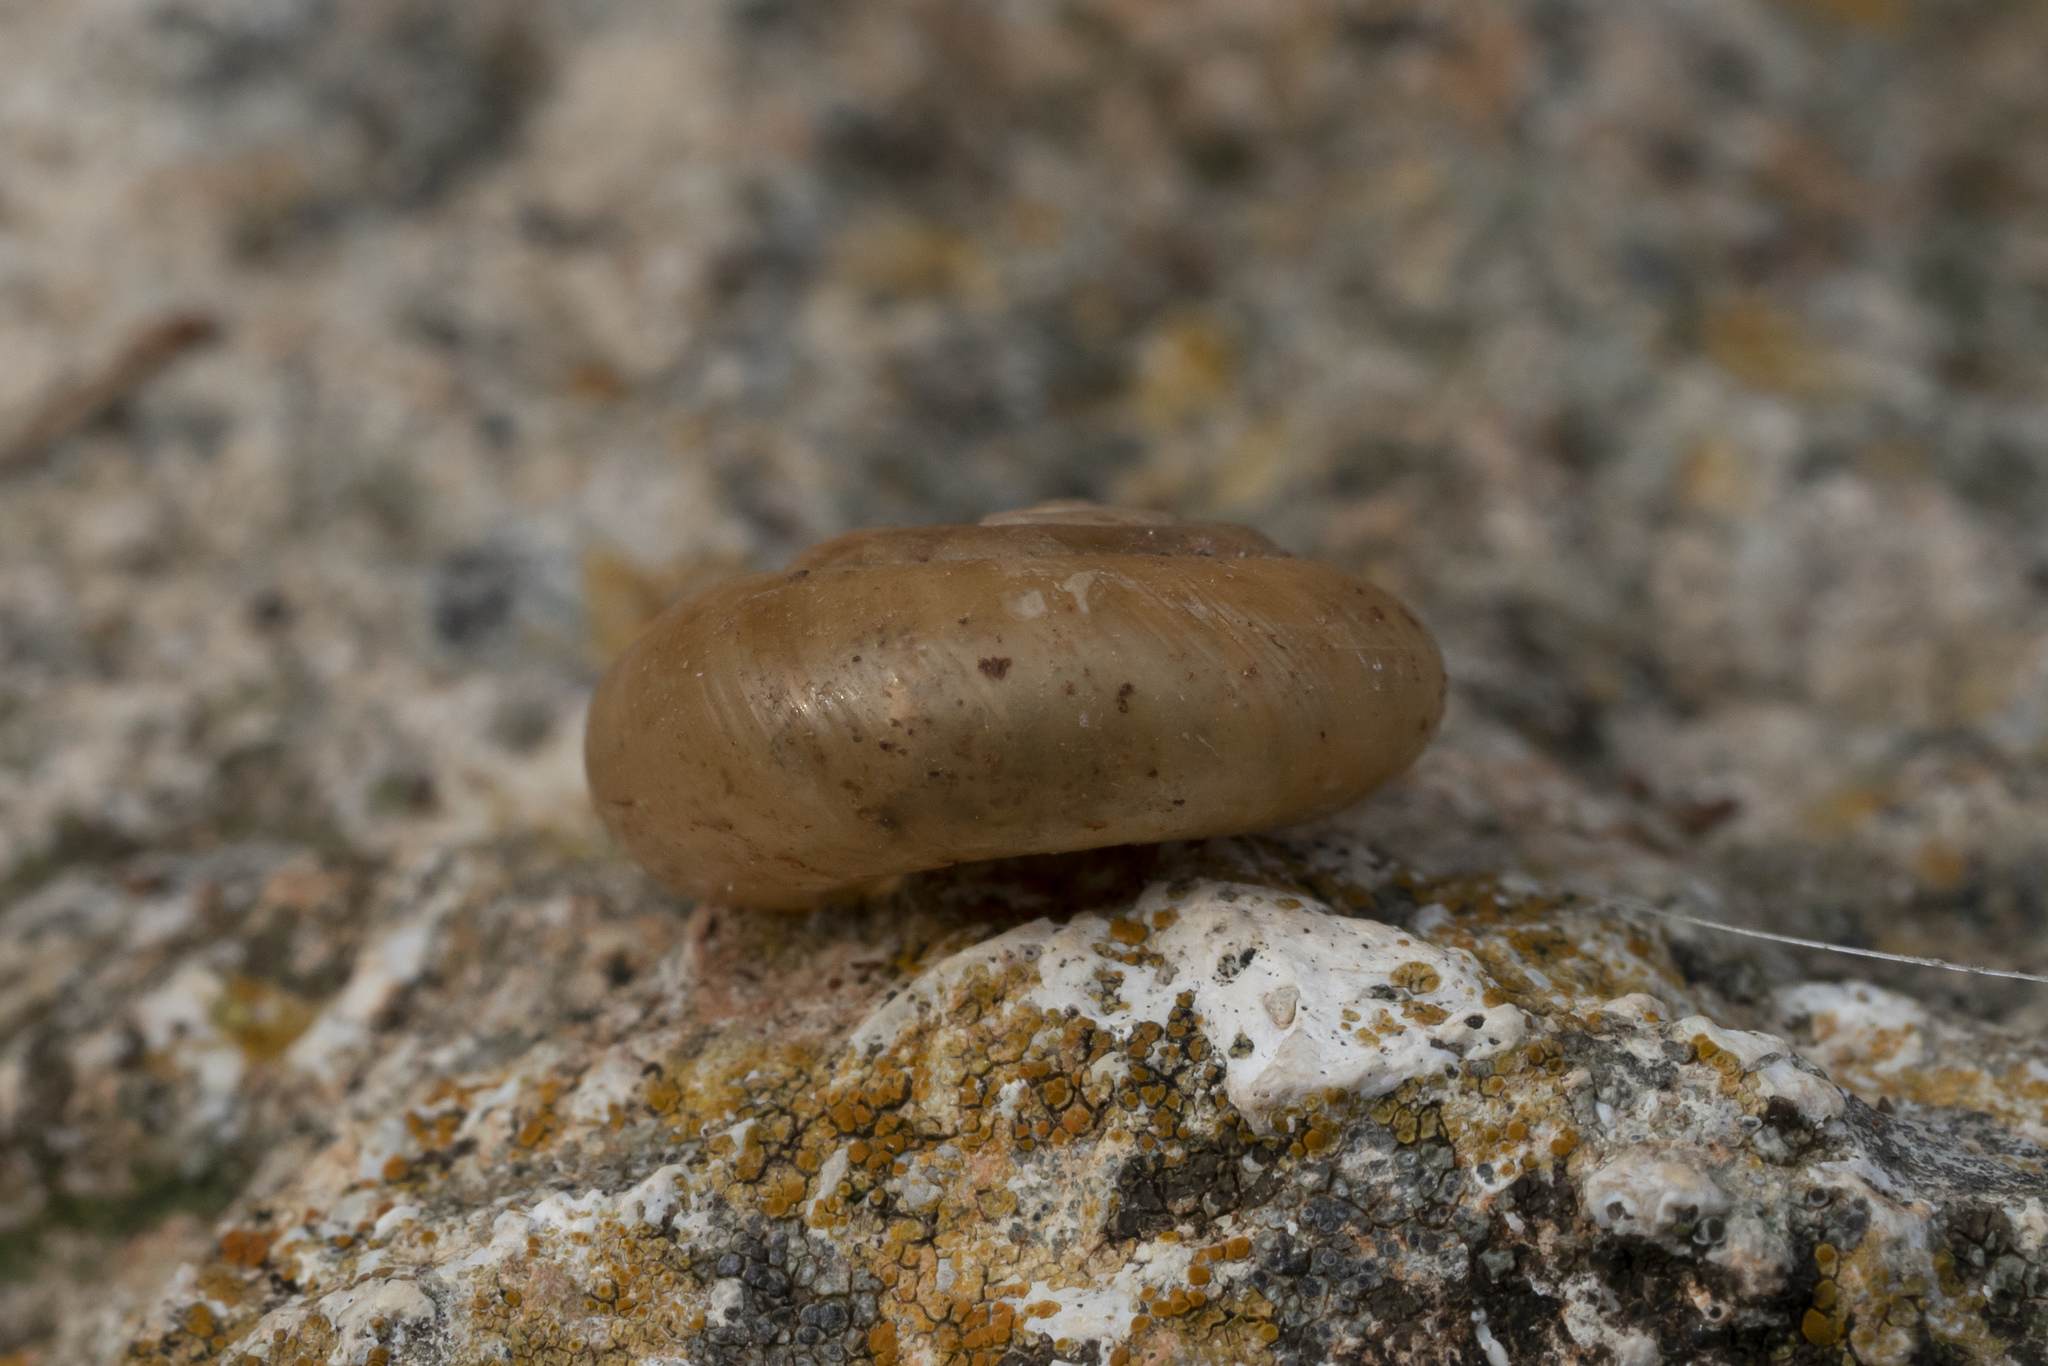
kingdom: Animalia
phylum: Mollusca
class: Gastropoda
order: Stylommatophora
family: Oxychilidae
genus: Oxychilus
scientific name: Oxychilus cyprius
